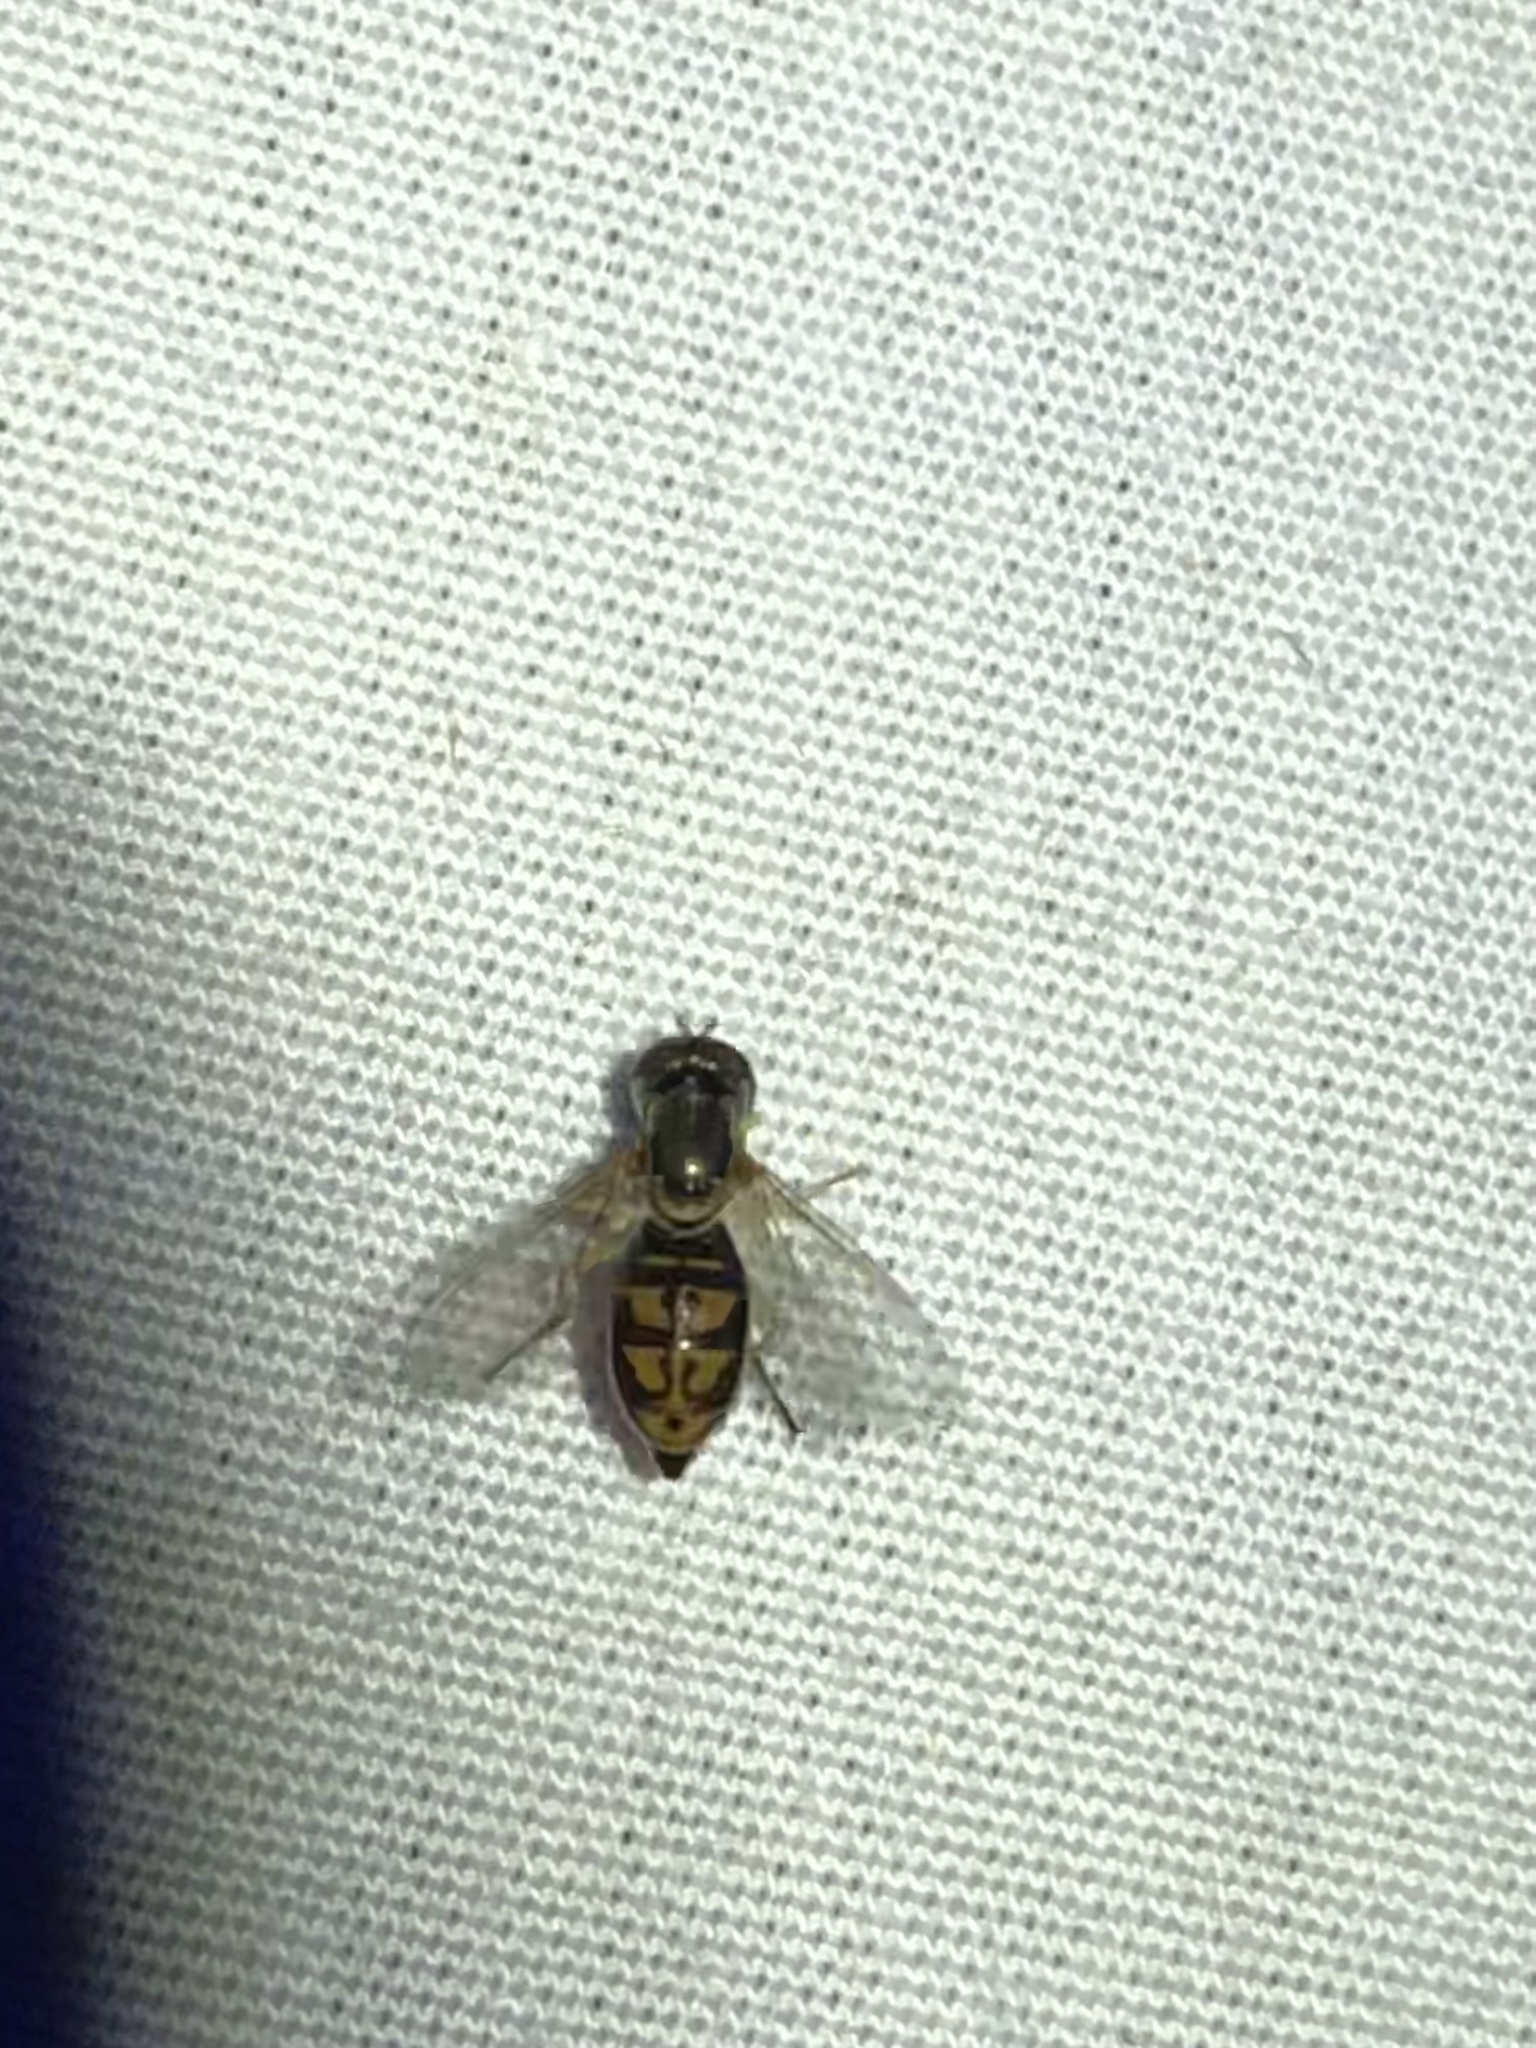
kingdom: Animalia
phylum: Arthropoda
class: Insecta
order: Diptera
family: Syrphidae
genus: Toxomerus
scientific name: Toxomerus marginatus
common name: Syrphid fly
